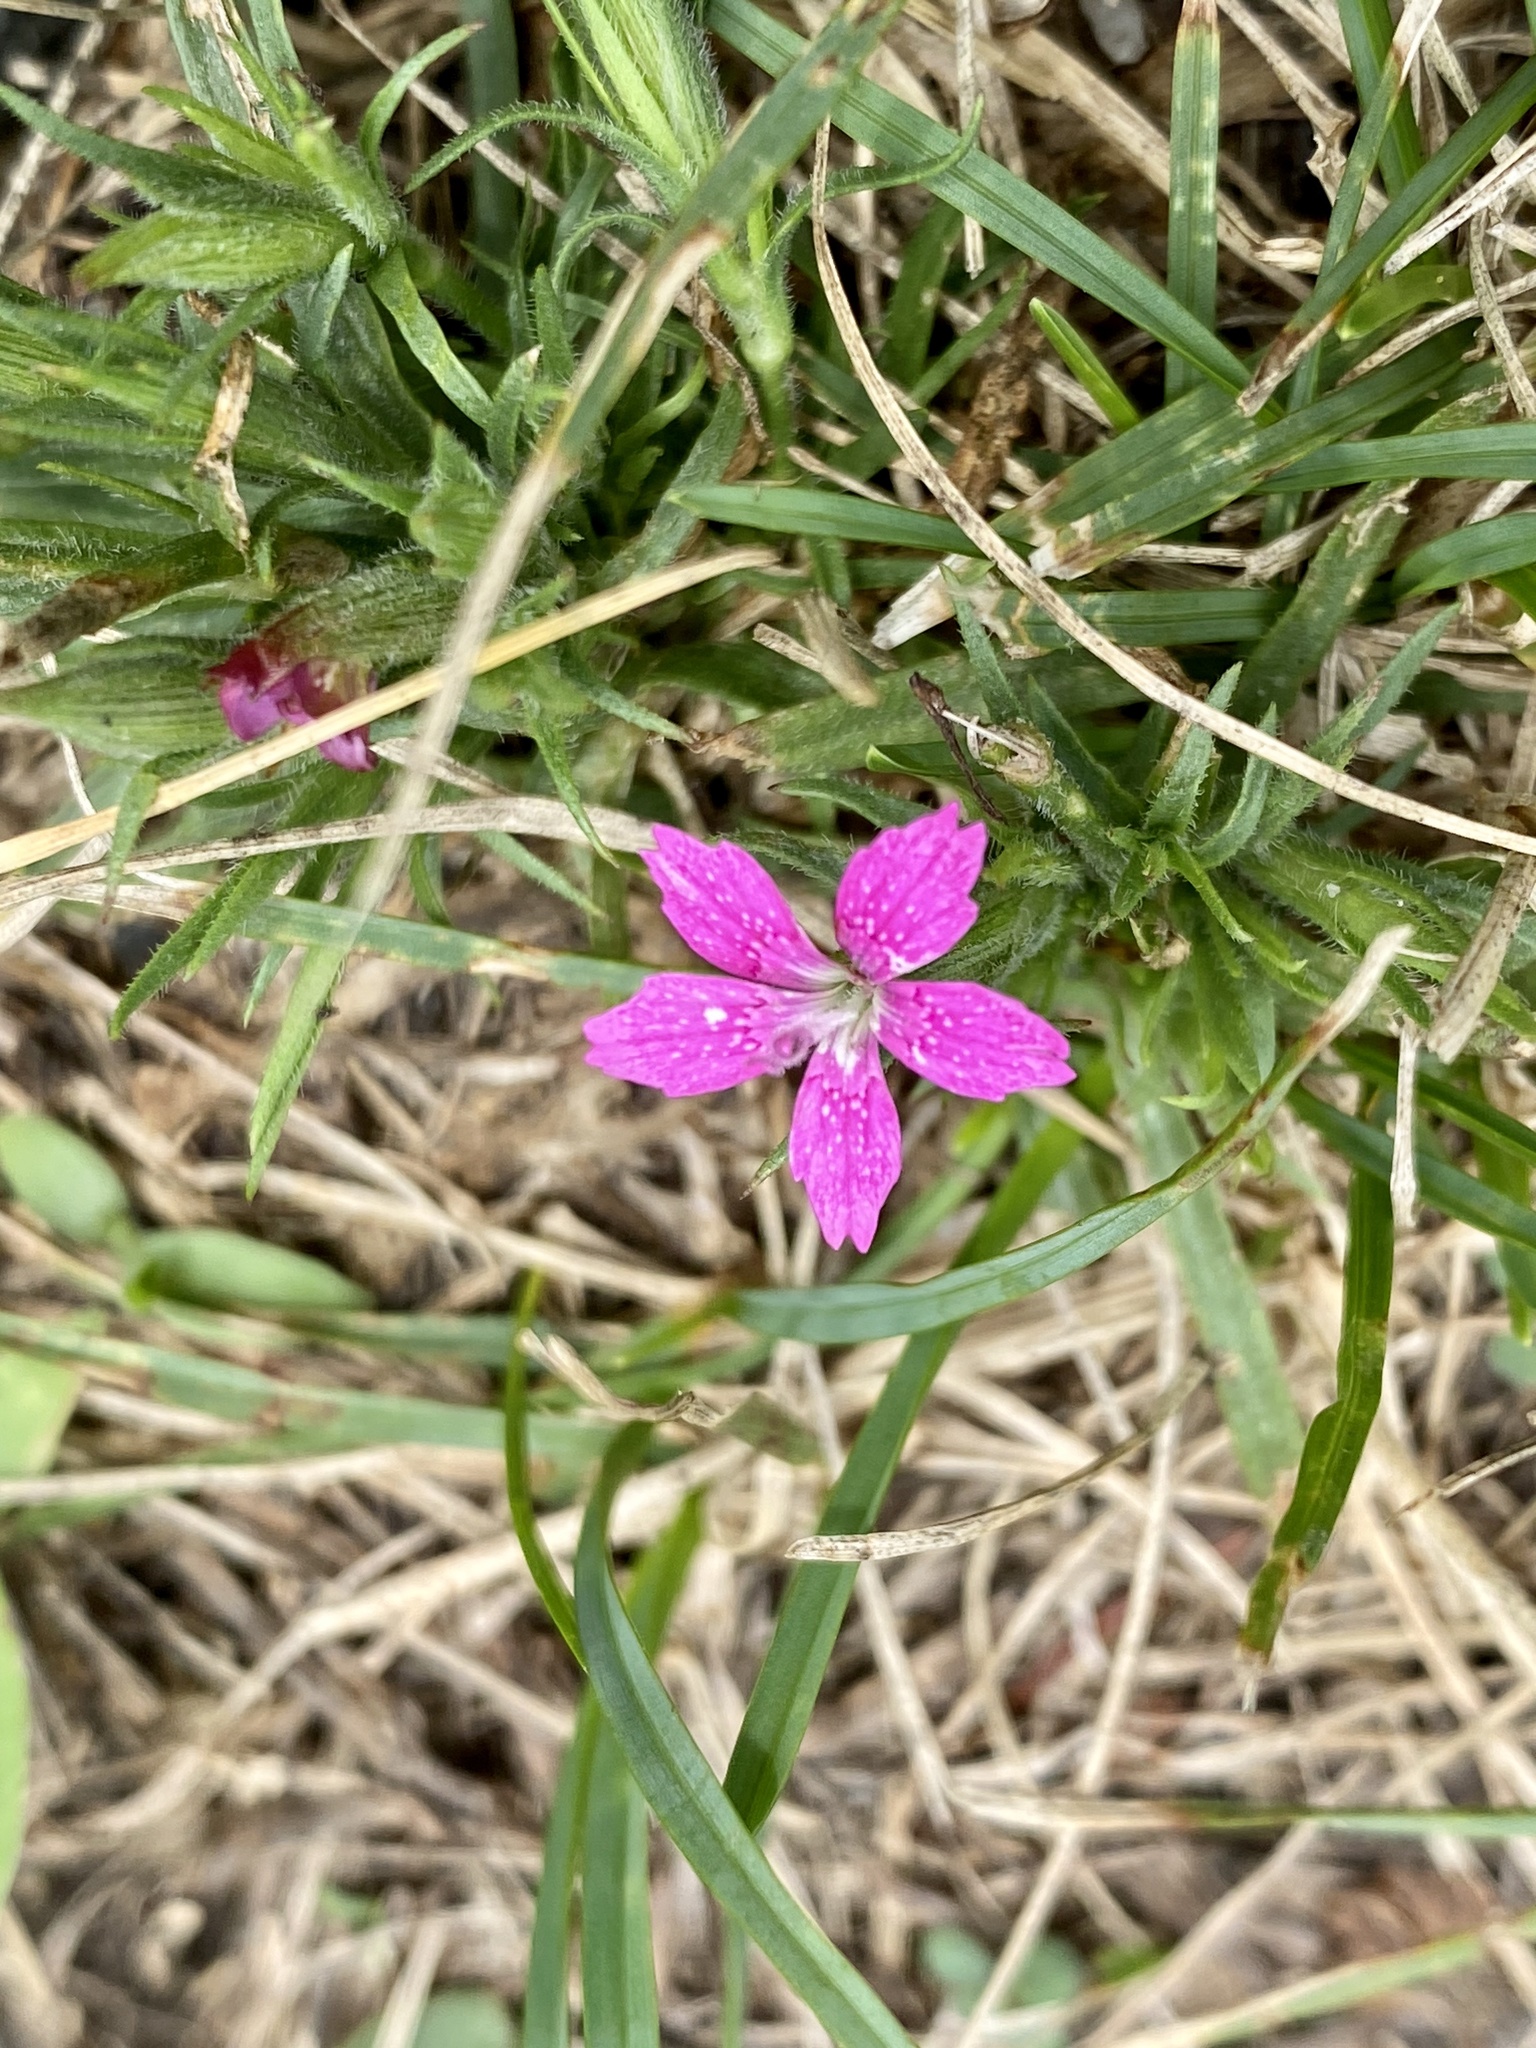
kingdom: Plantae
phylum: Tracheophyta
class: Magnoliopsida
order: Caryophyllales
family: Caryophyllaceae
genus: Dianthus
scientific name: Dianthus armeria
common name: Deptford pink
